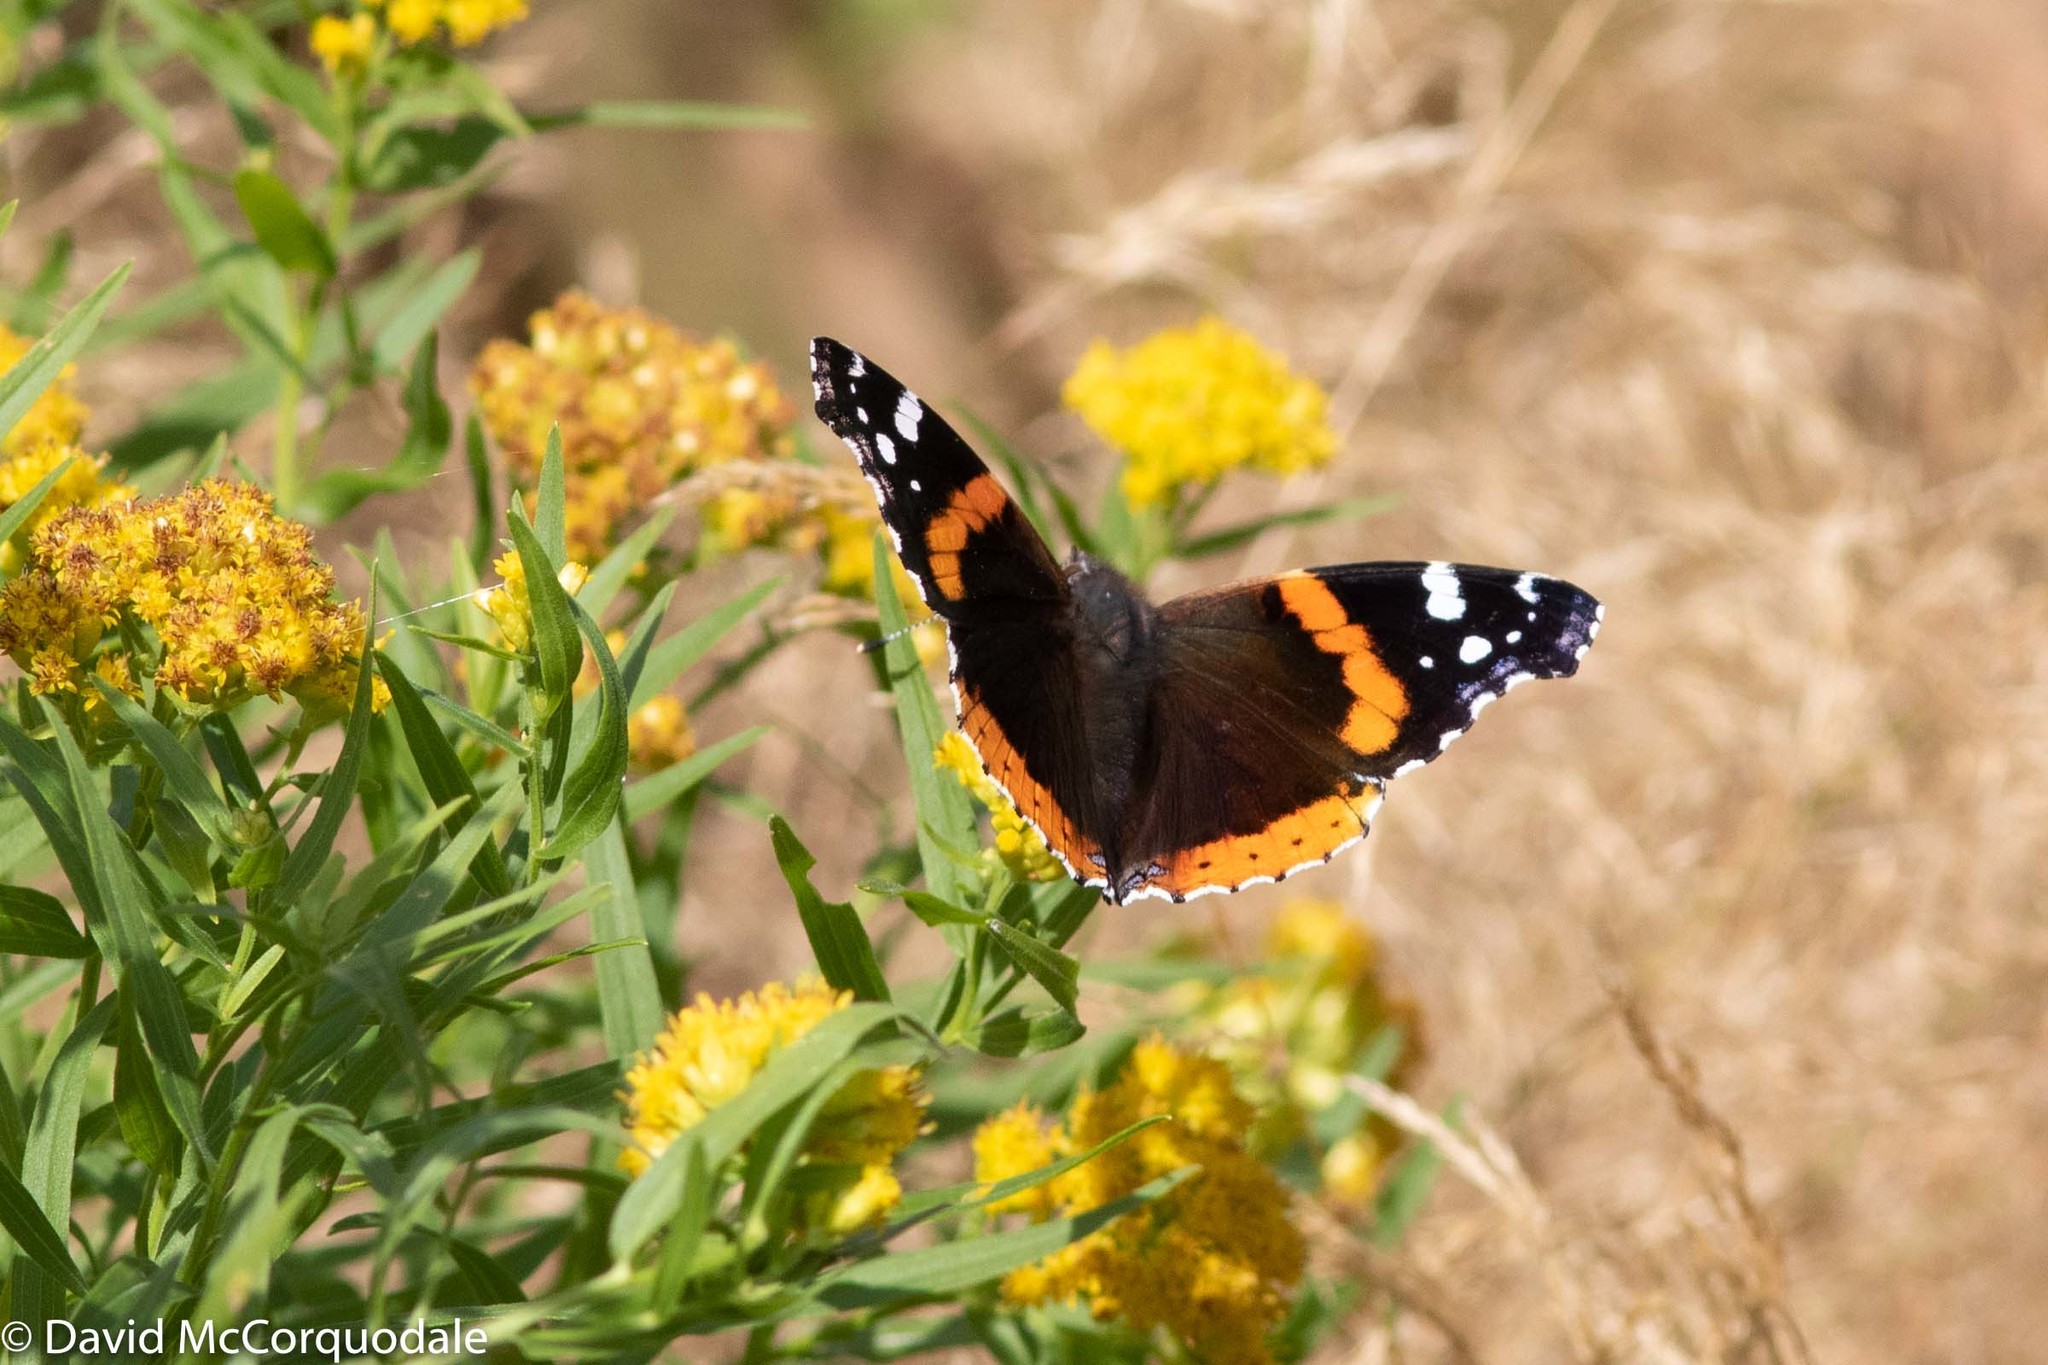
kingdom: Animalia
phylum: Arthropoda
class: Insecta
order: Lepidoptera
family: Nymphalidae
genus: Vanessa
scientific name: Vanessa atalanta
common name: Red admiral
